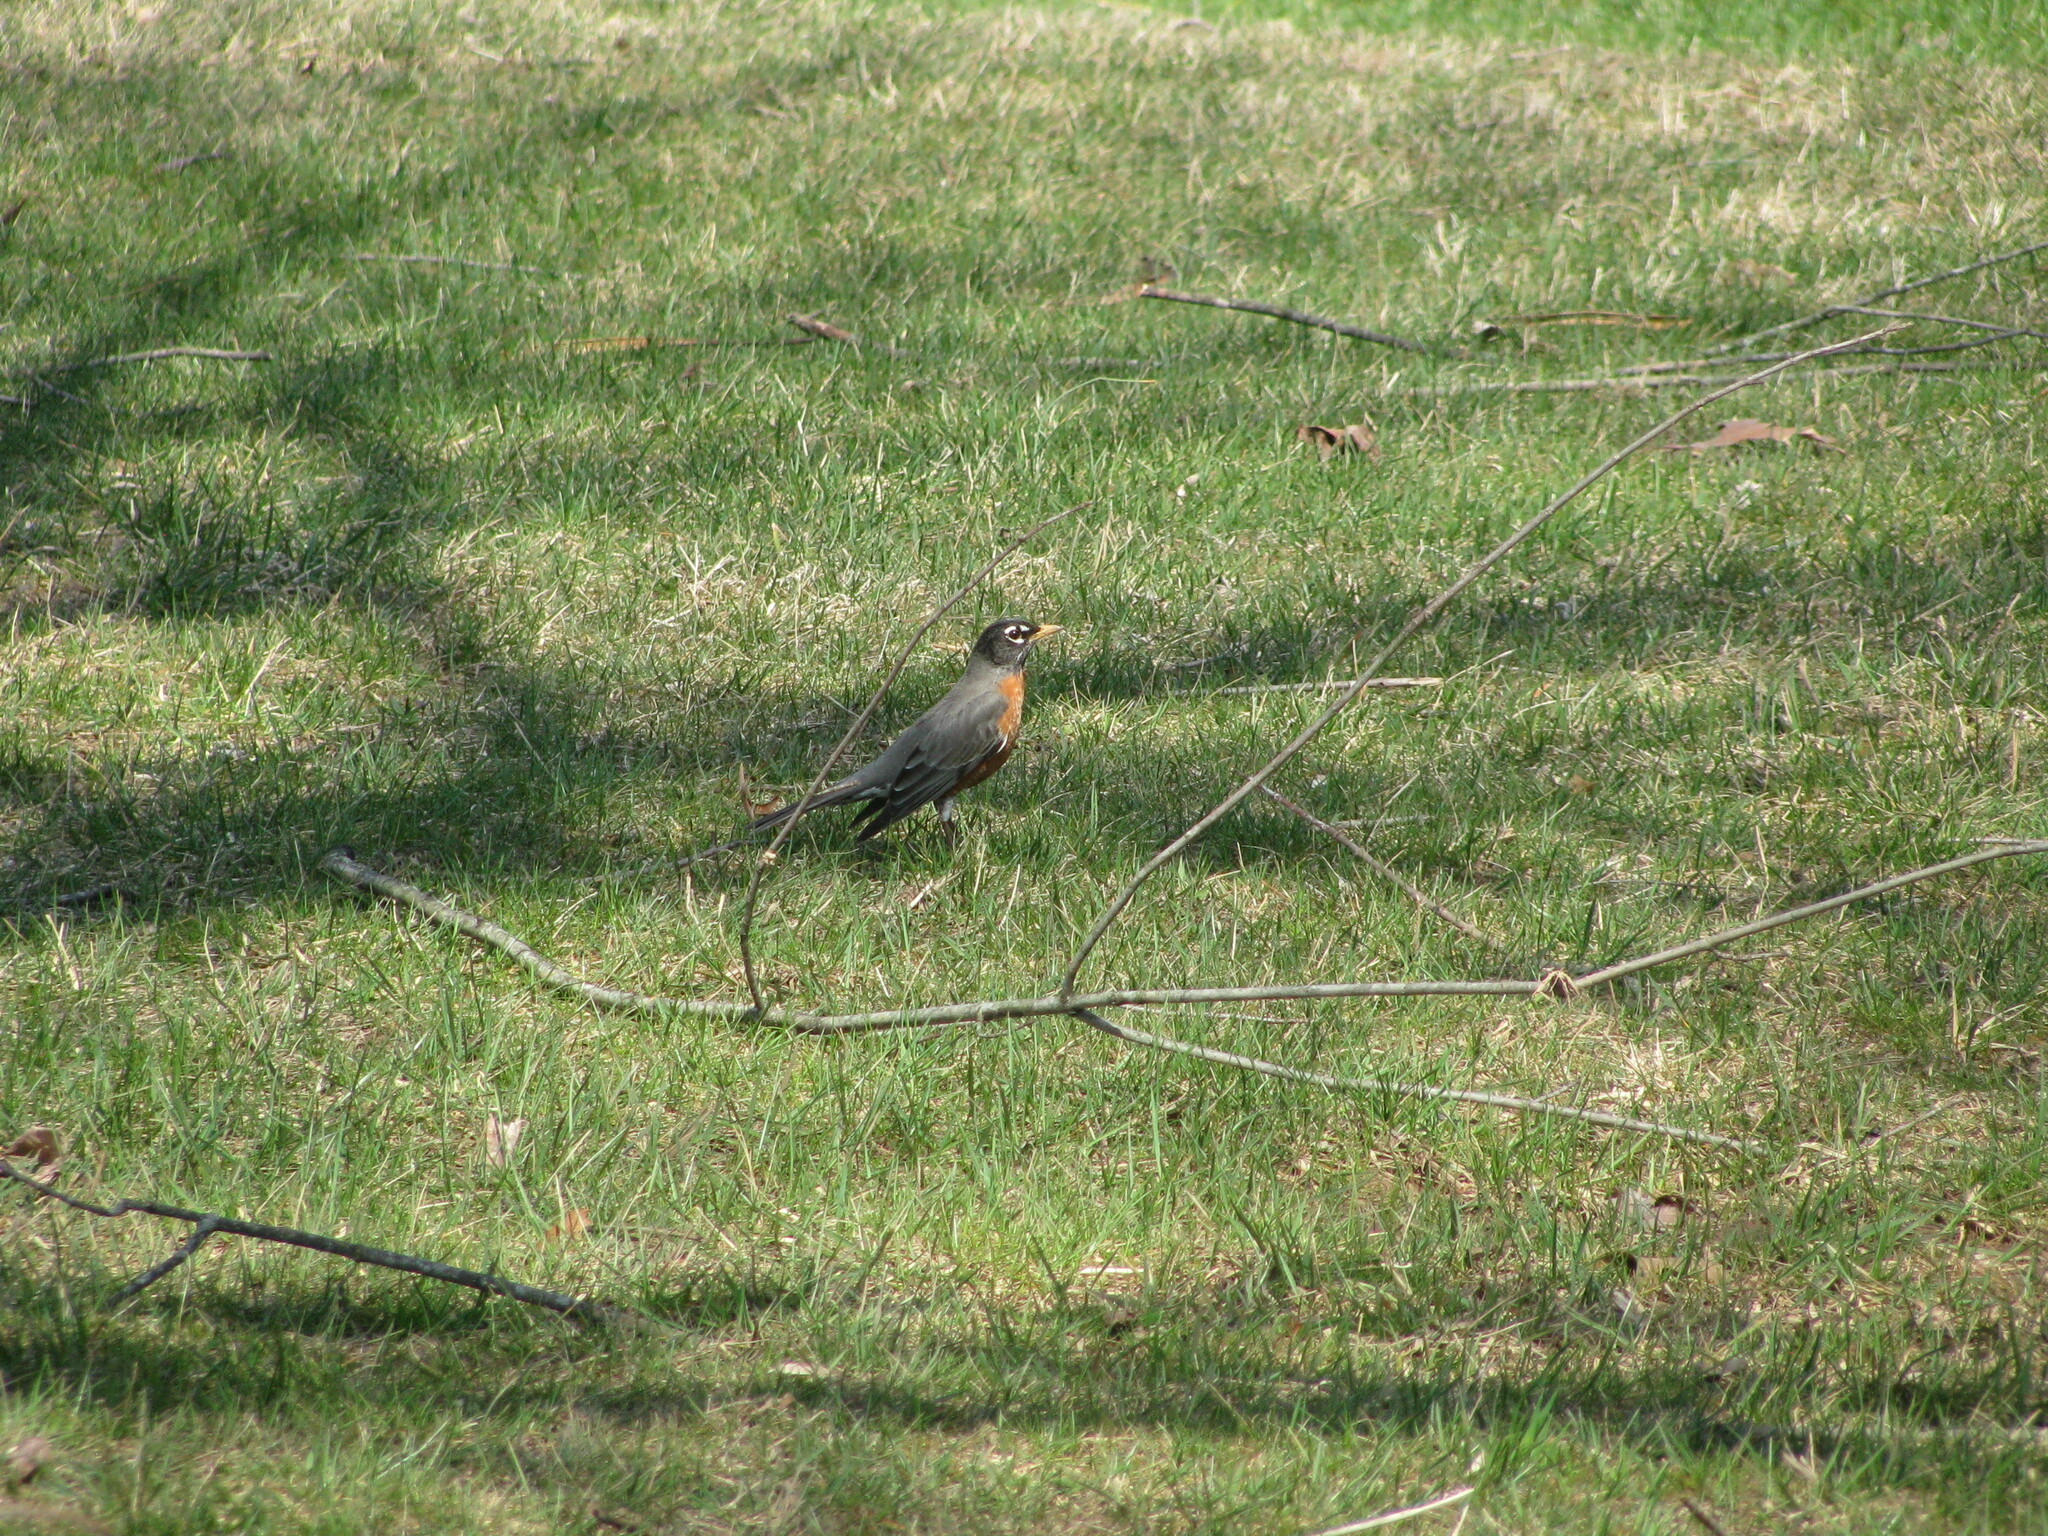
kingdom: Animalia
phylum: Chordata
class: Aves
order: Passeriformes
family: Turdidae
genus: Turdus
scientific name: Turdus migratorius
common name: American robin
